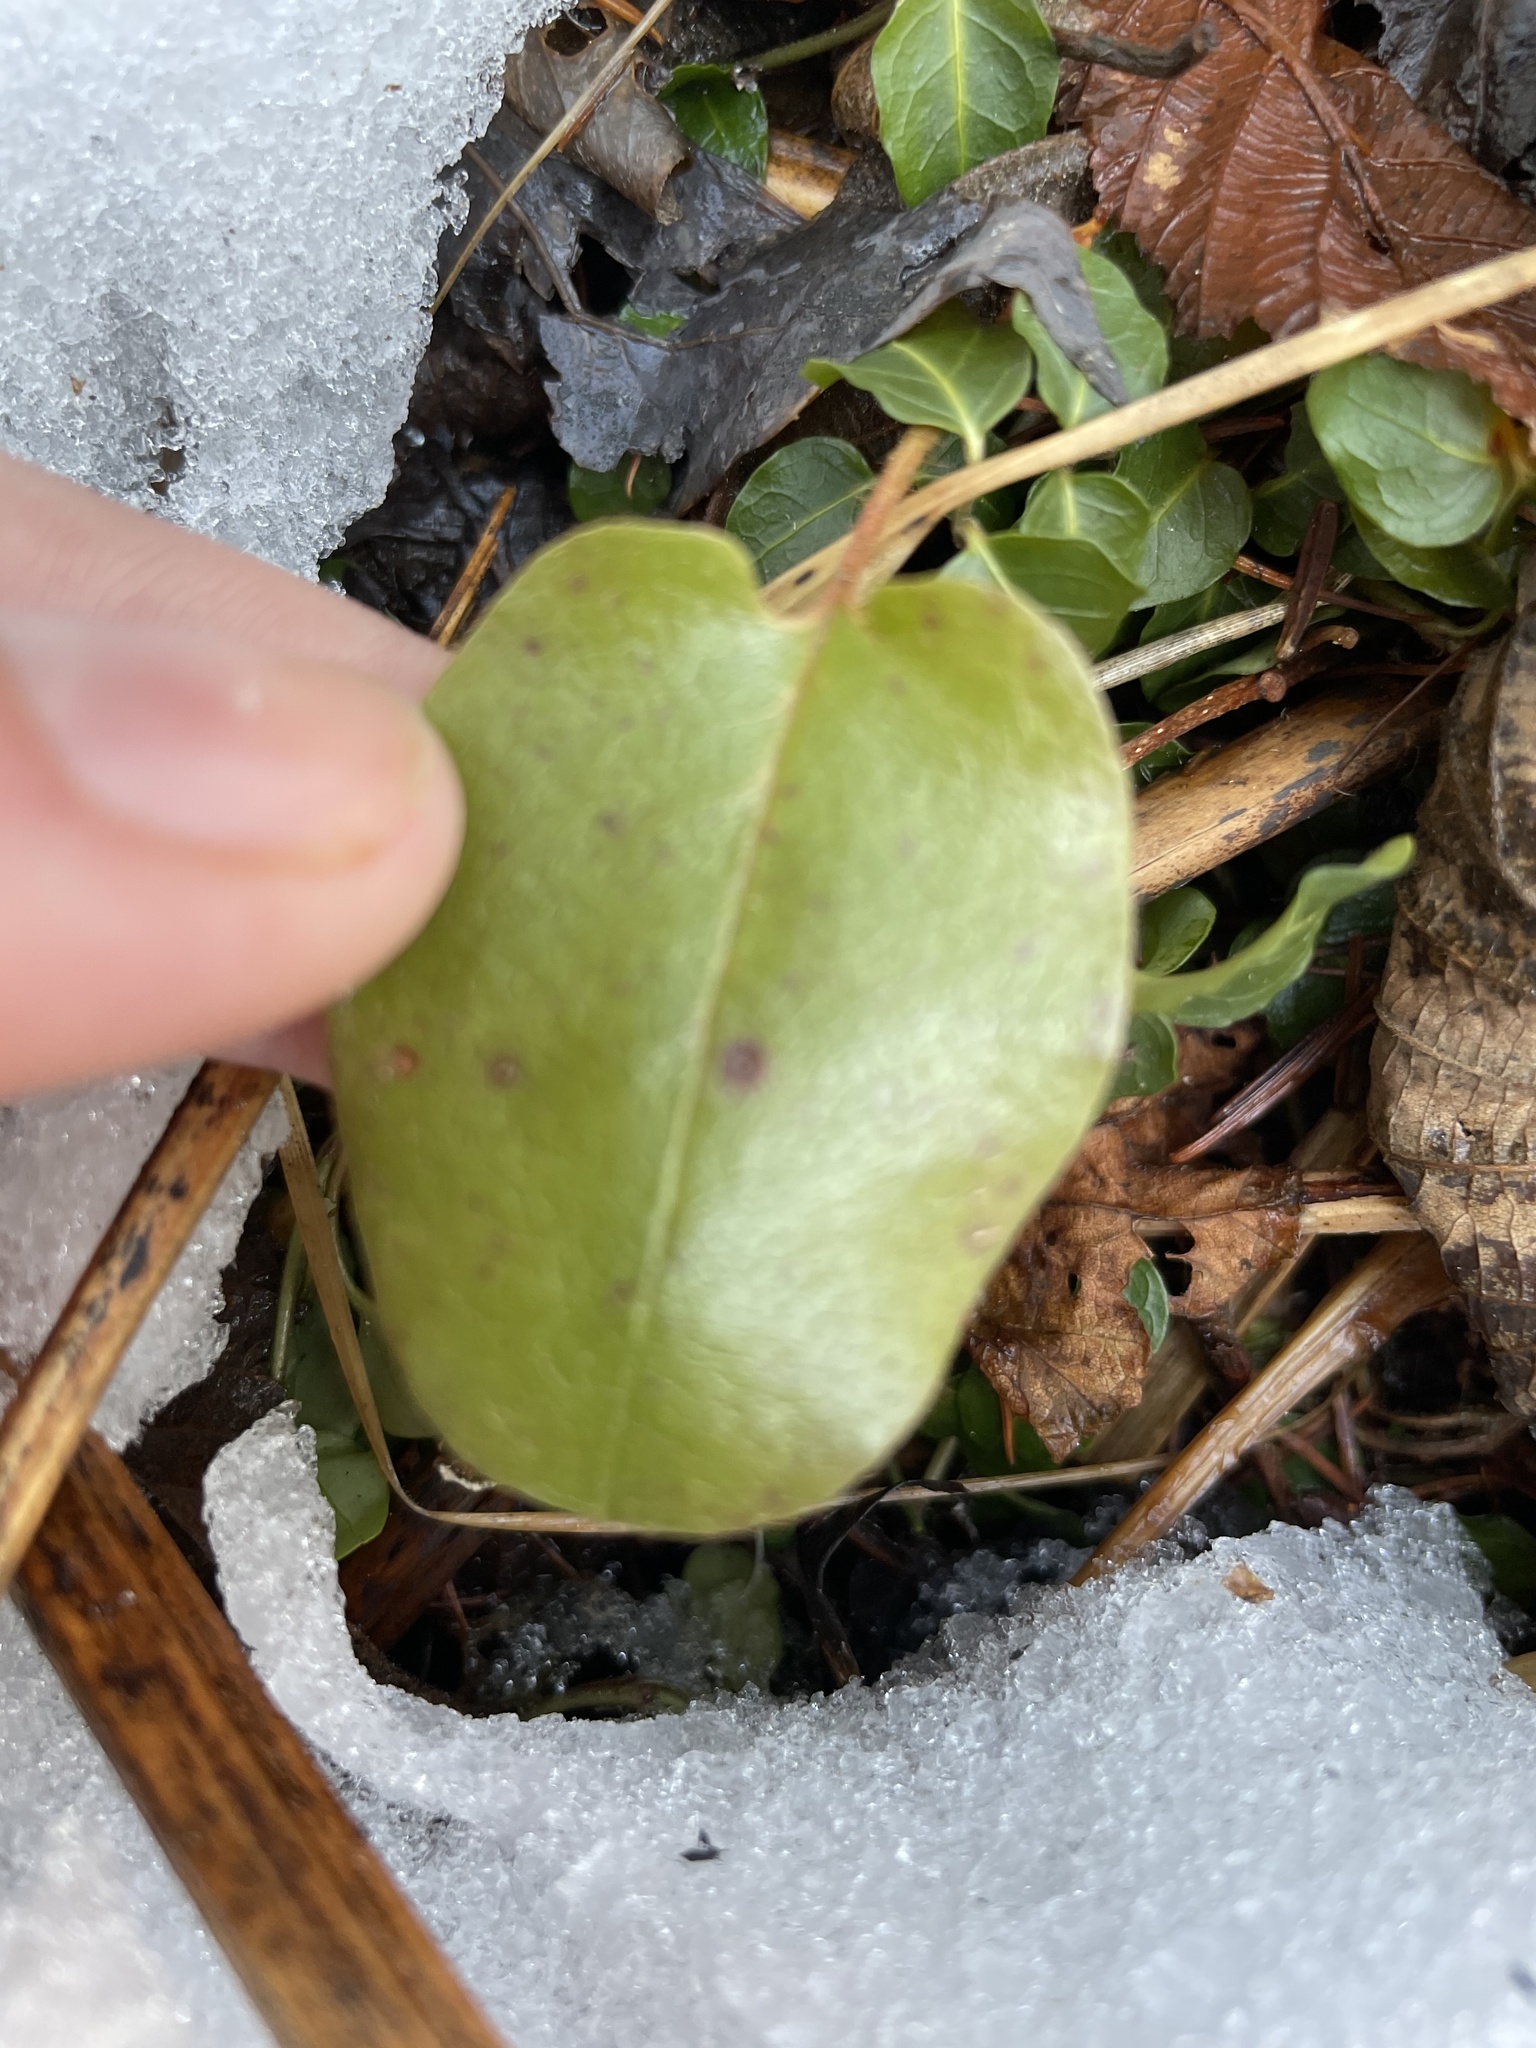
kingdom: Plantae
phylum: Tracheophyta
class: Magnoliopsida
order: Ericales
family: Ericaceae
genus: Epigaea
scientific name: Epigaea repens
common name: Gravelroot
